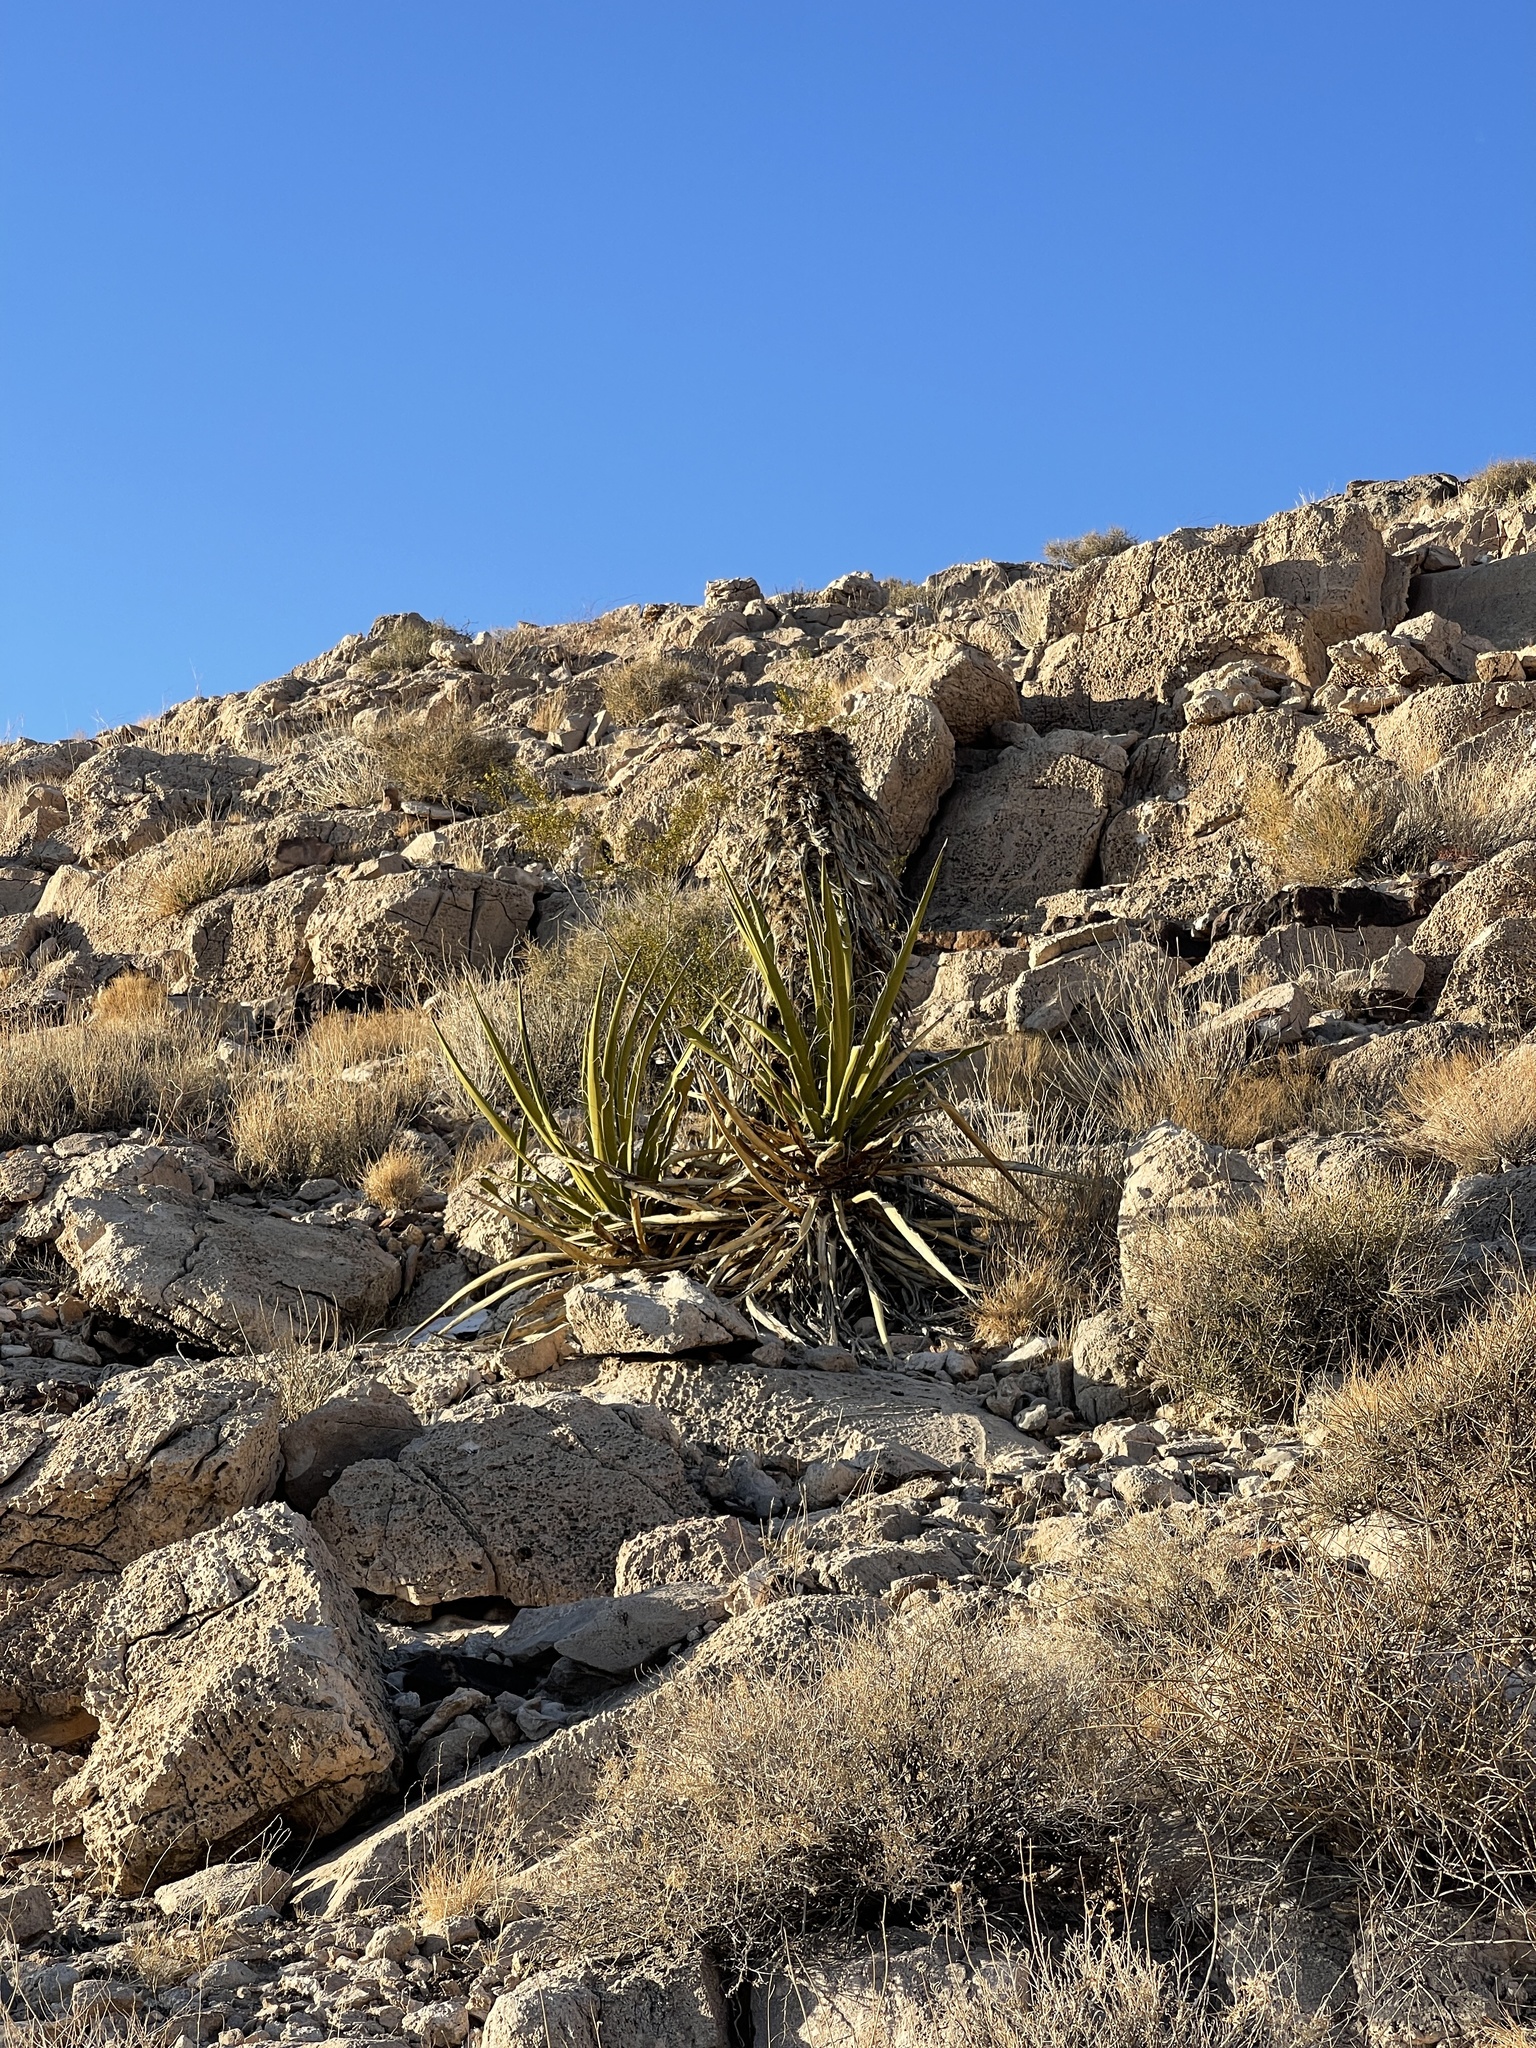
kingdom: Plantae
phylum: Tracheophyta
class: Liliopsida
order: Asparagales
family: Asparagaceae
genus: Yucca
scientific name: Yucca schidigera
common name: Mojave yucca
